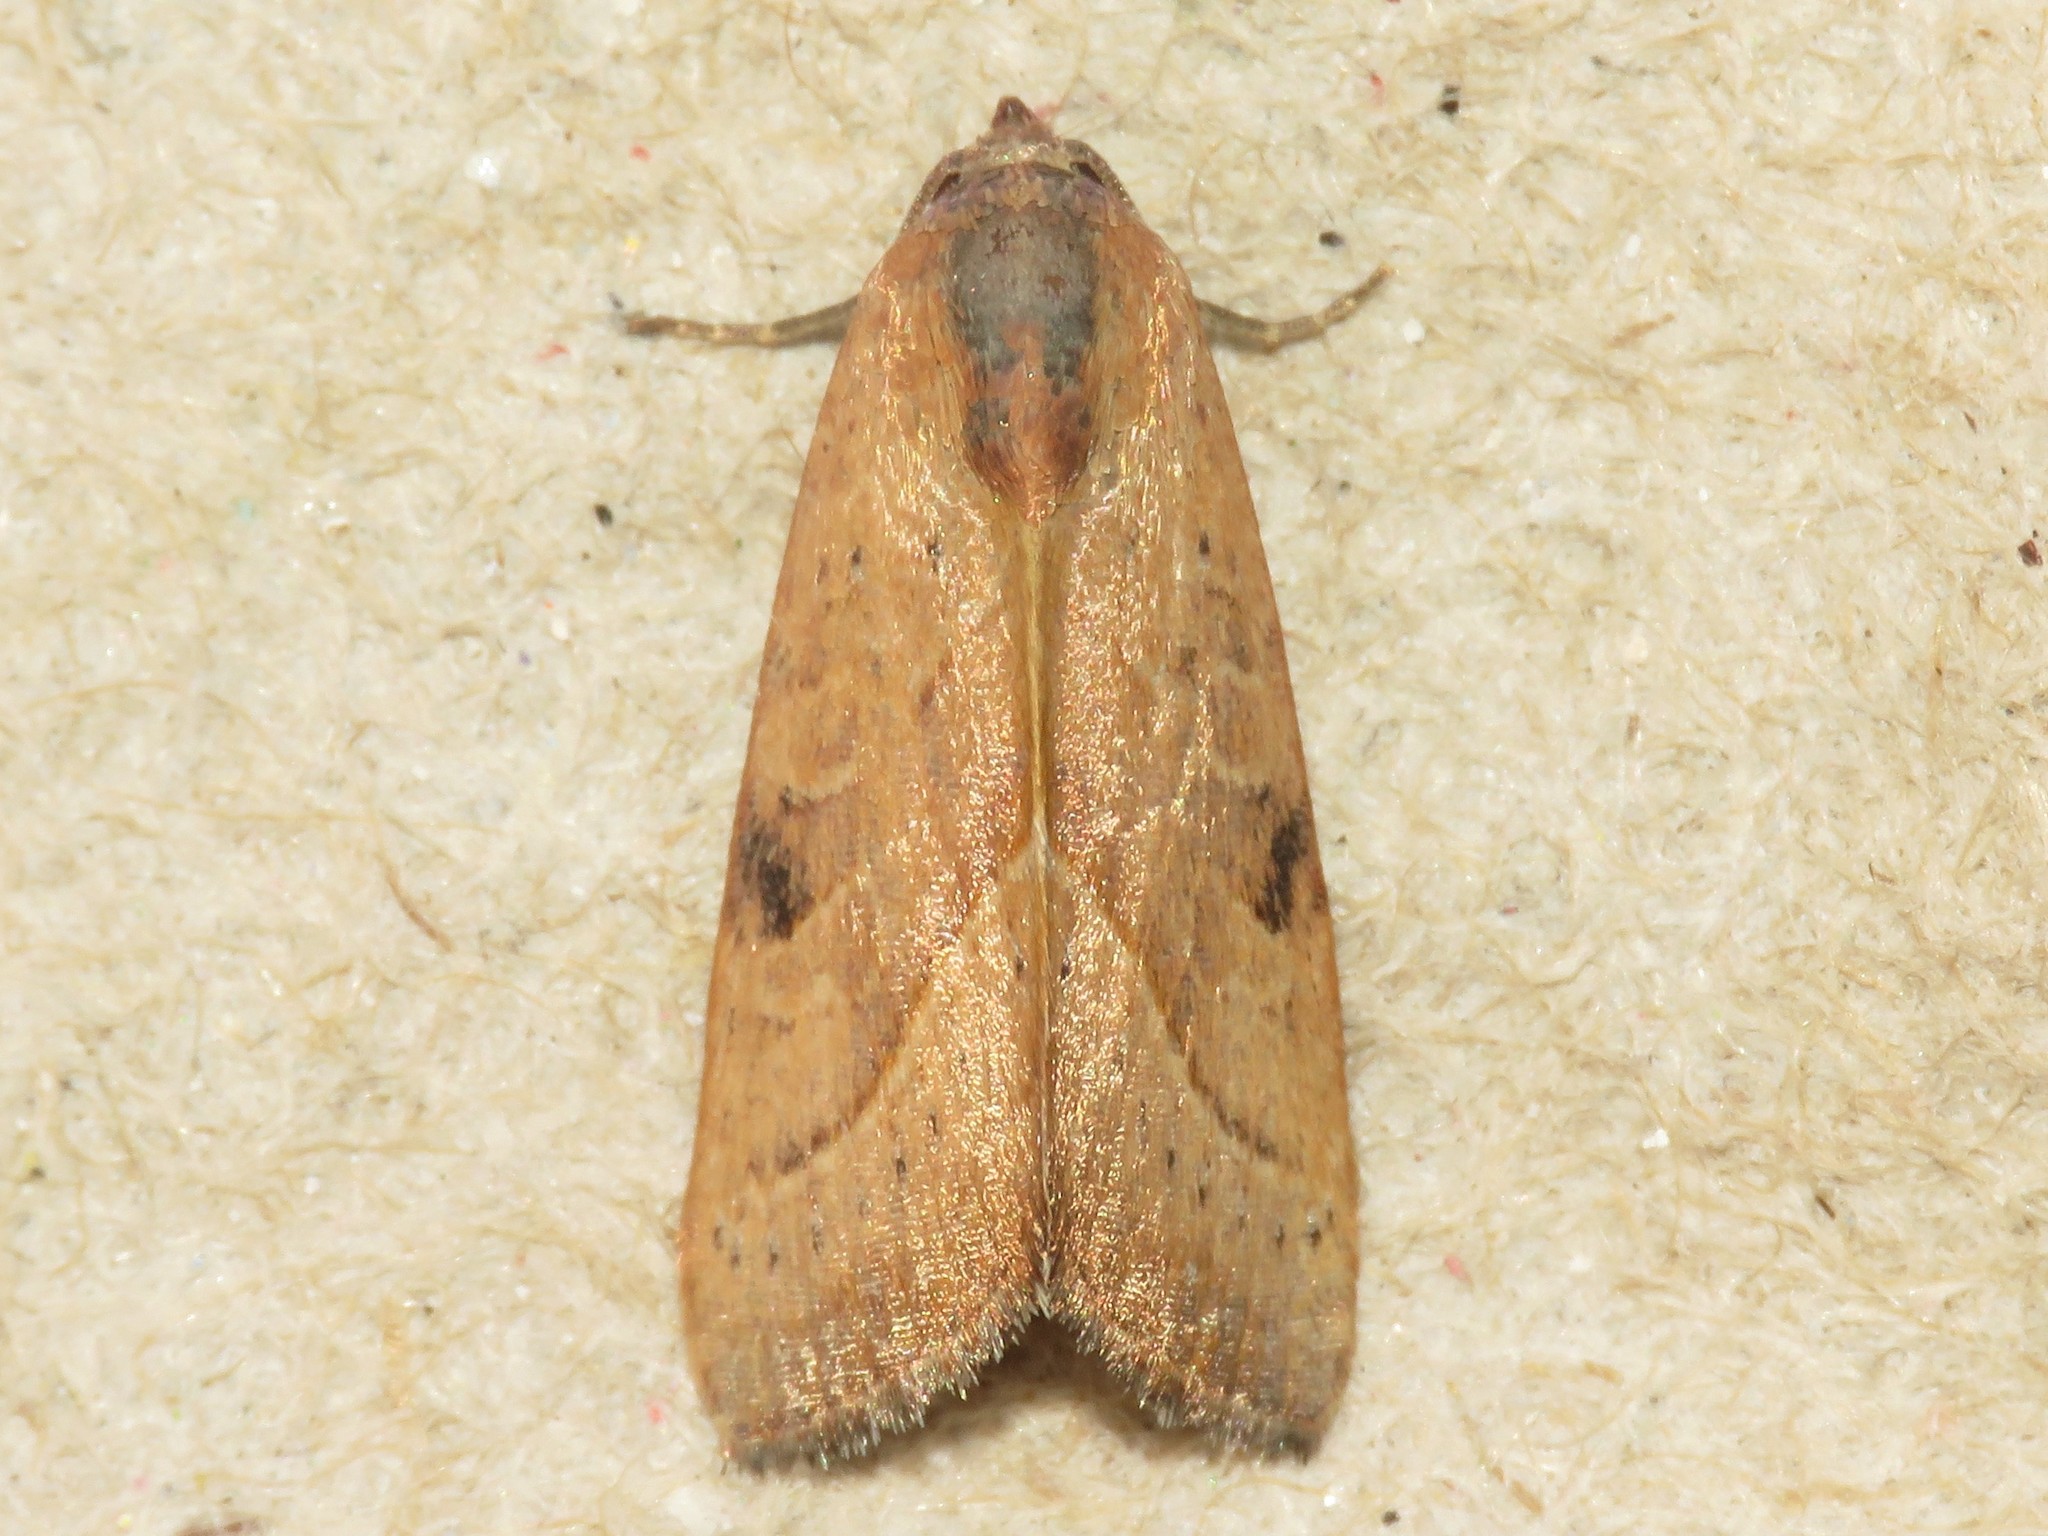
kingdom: Animalia
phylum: Arthropoda
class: Insecta
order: Lepidoptera
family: Noctuidae
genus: Galgula
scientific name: Galgula partita
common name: Wedgeling
